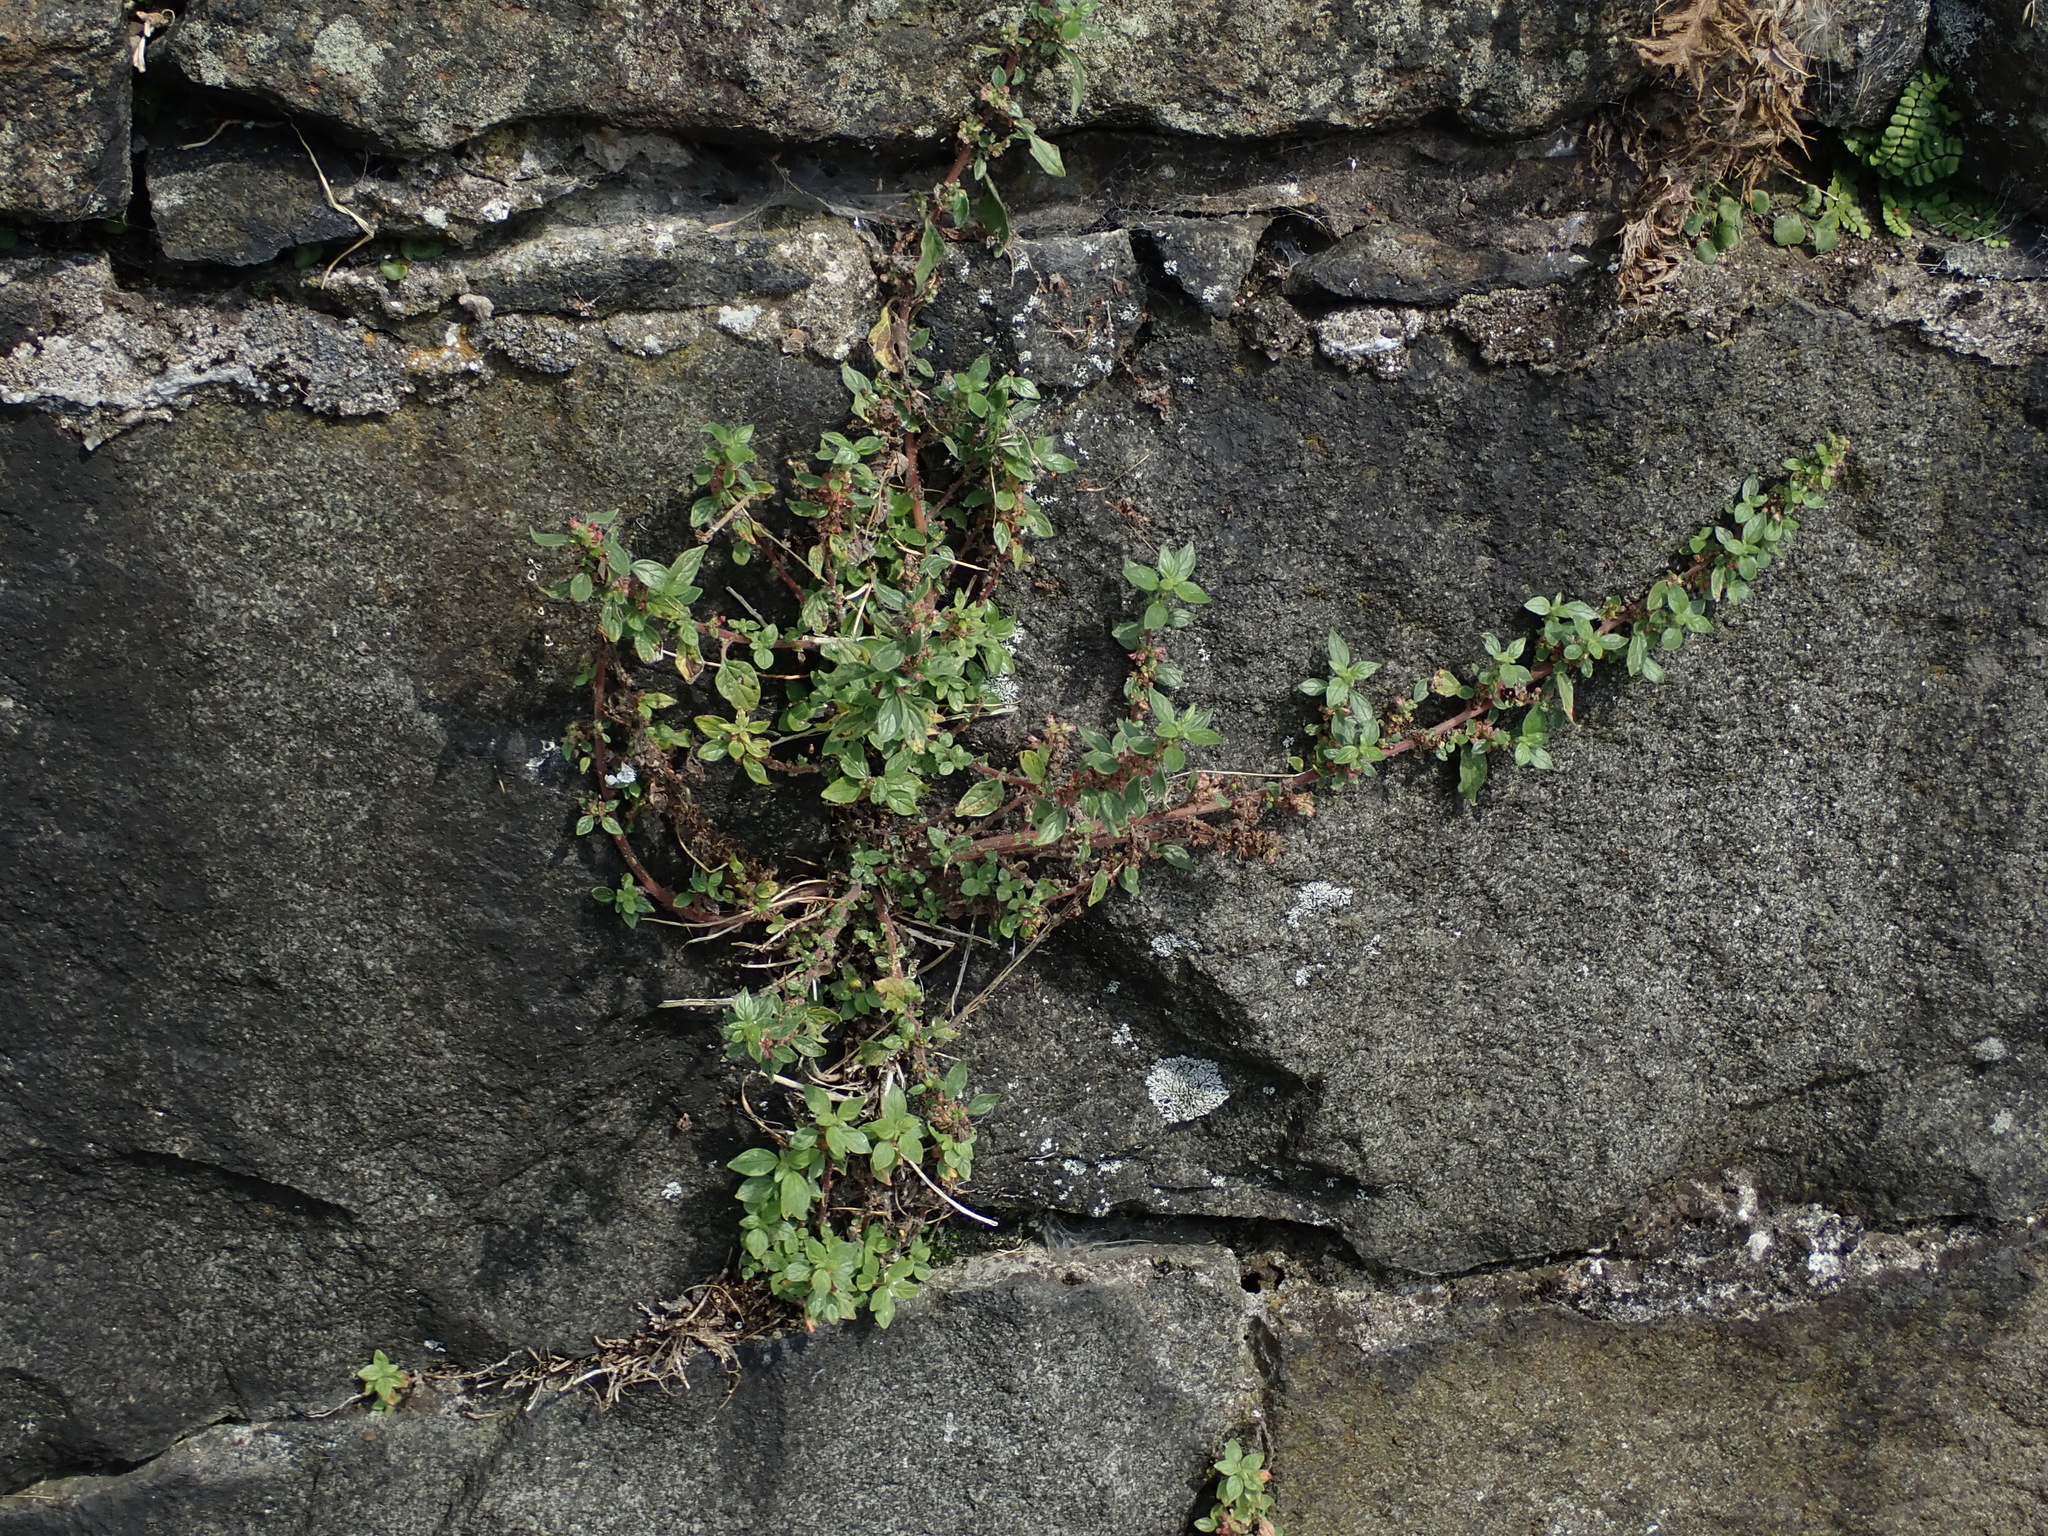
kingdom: Plantae
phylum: Tracheophyta
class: Magnoliopsida
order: Rosales
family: Urticaceae
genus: Parietaria
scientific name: Parietaria judaica
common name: Pellitory-of-the-wall
